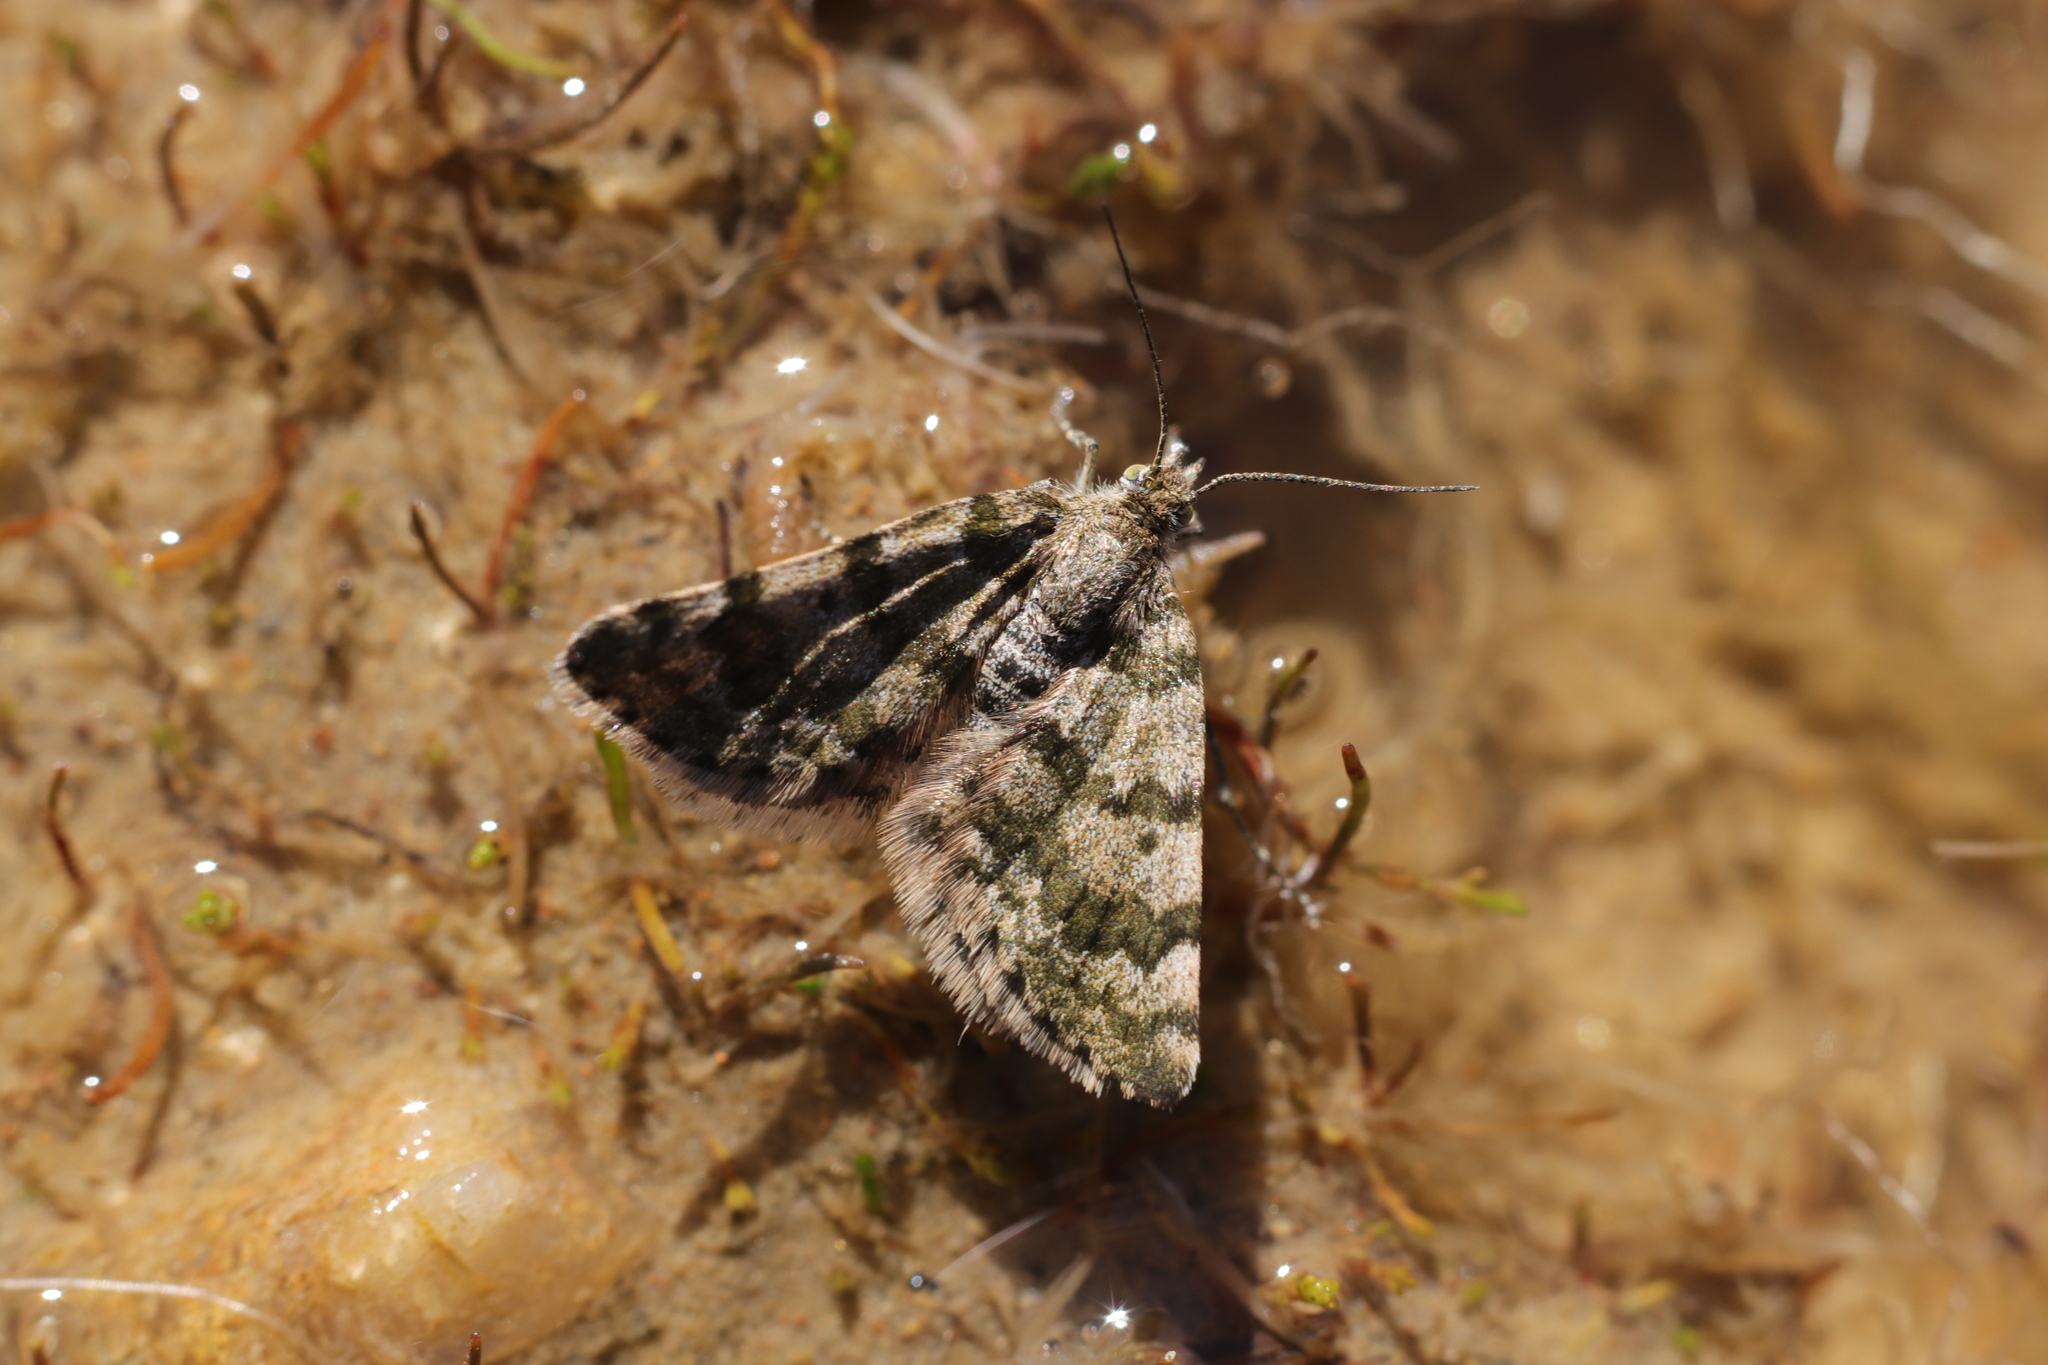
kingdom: Animalia
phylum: Arthropoda
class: Insecta
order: Lepidoptera
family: Geometridae
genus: Paranotoreas
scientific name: Paranotoreas fulva
